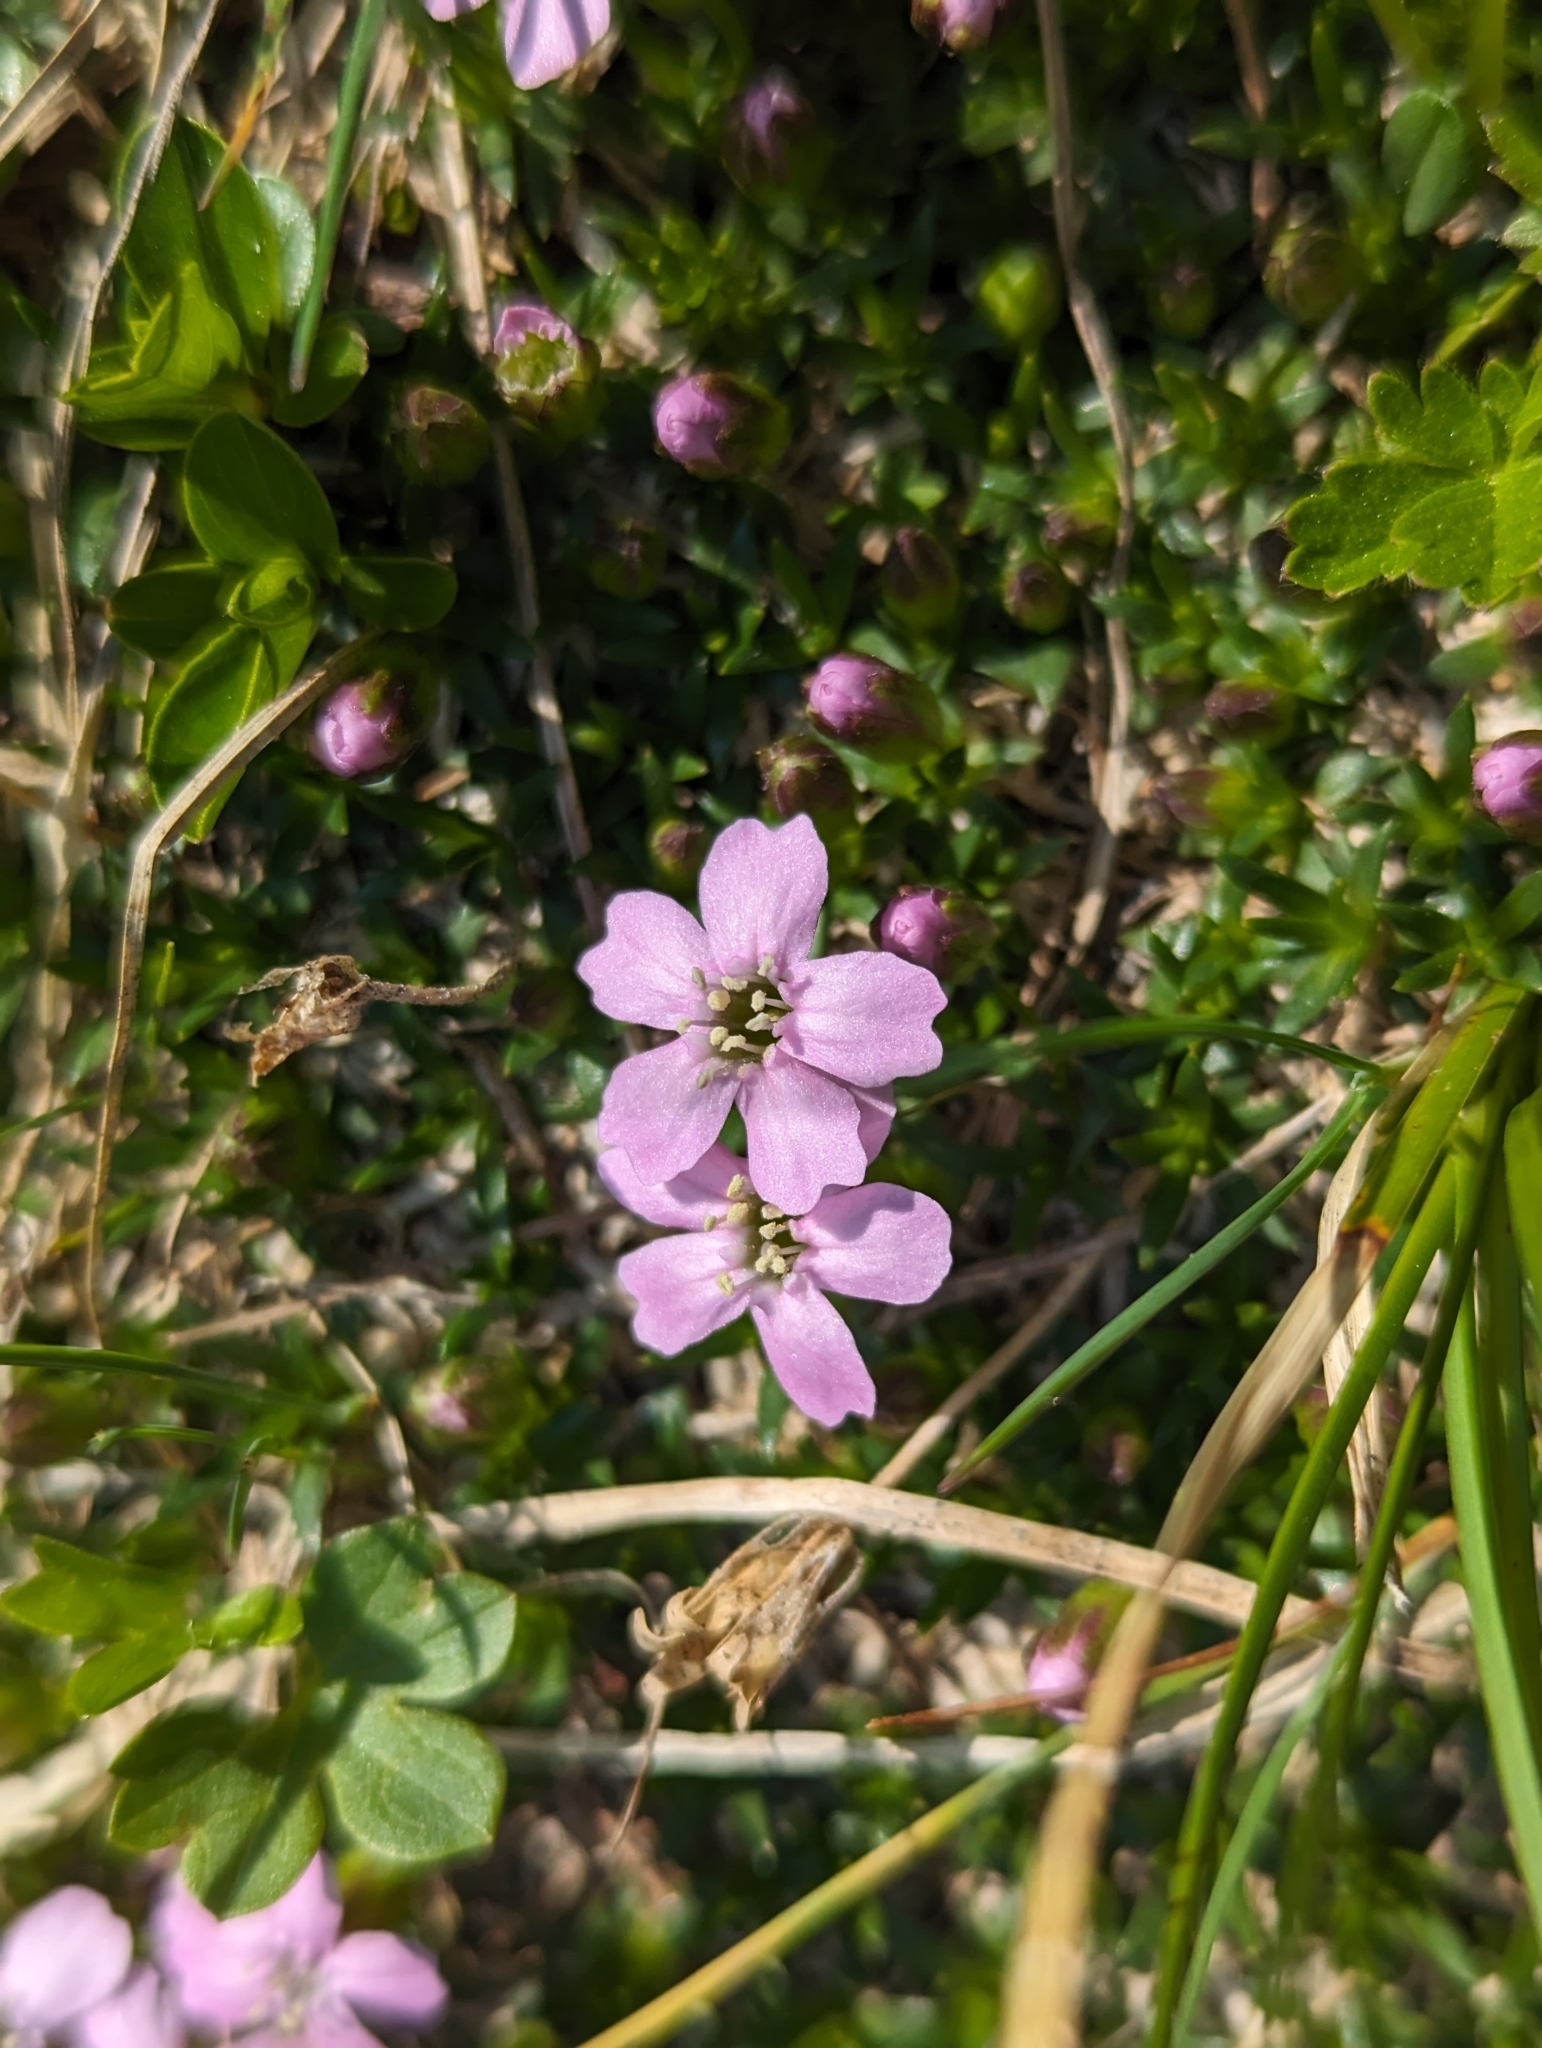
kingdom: Plantae
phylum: Tracheophyta
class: Magnoliopsida
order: Caryophyllales
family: Caryophyllaceae
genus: Silene
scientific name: Silene acaulis
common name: Moss campion
